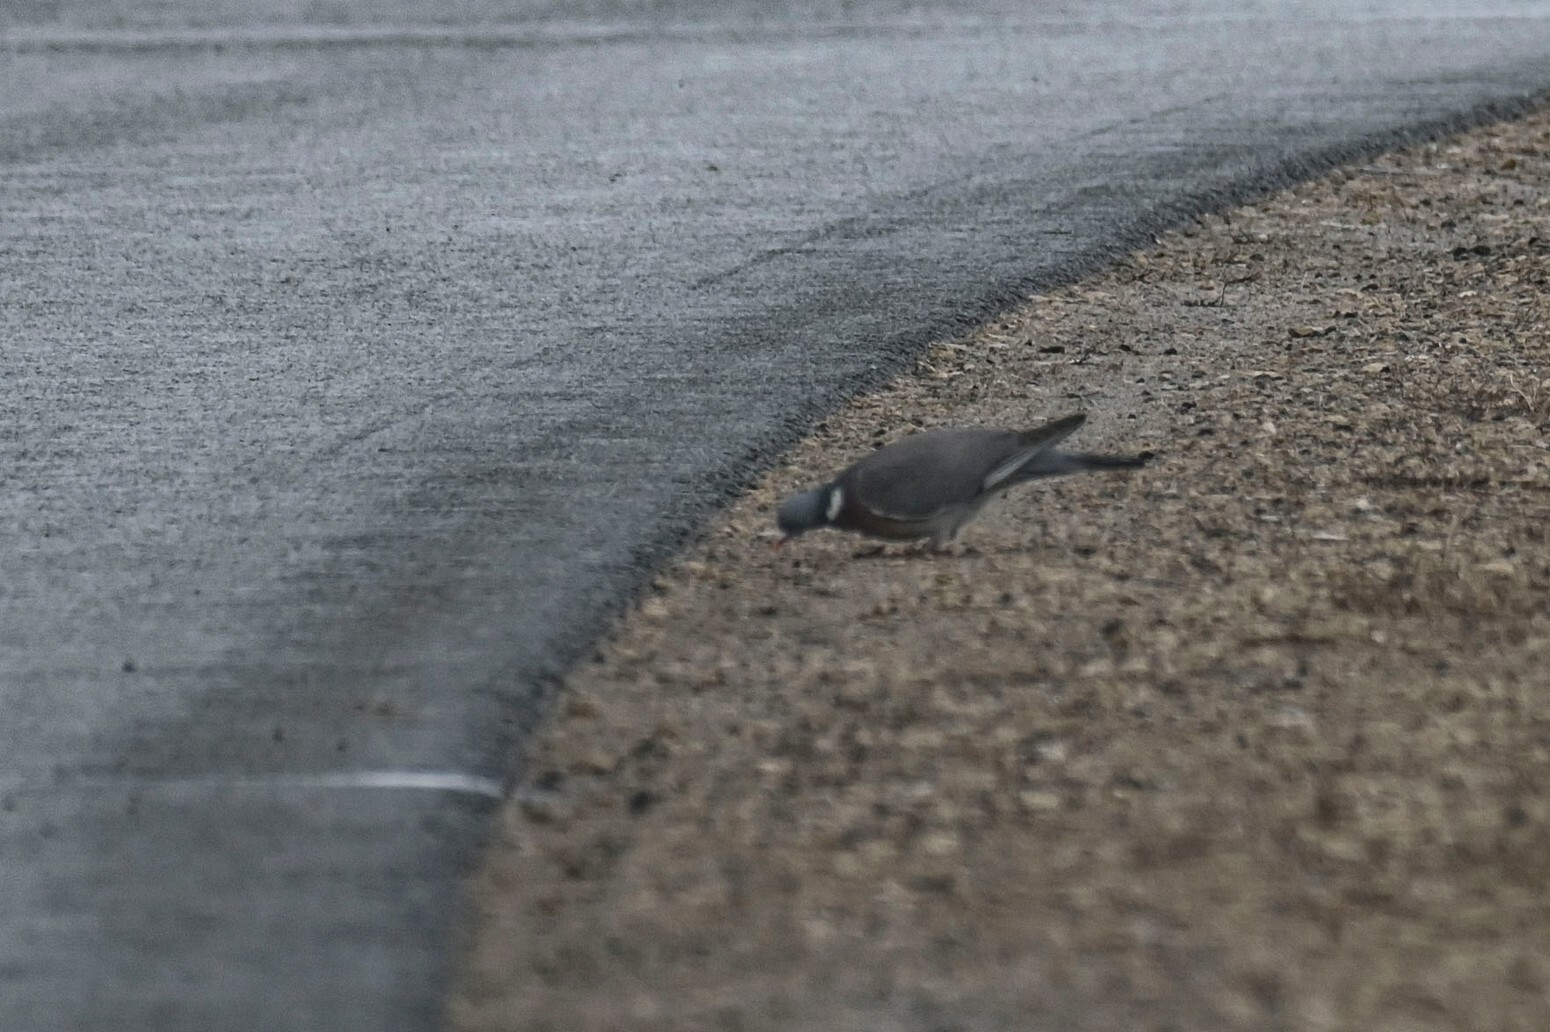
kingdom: Animalia
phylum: Chordata
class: Aves
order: Columbiformes
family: Columbidae
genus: Columba
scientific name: Columba palumbus
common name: Common wood pigeon
